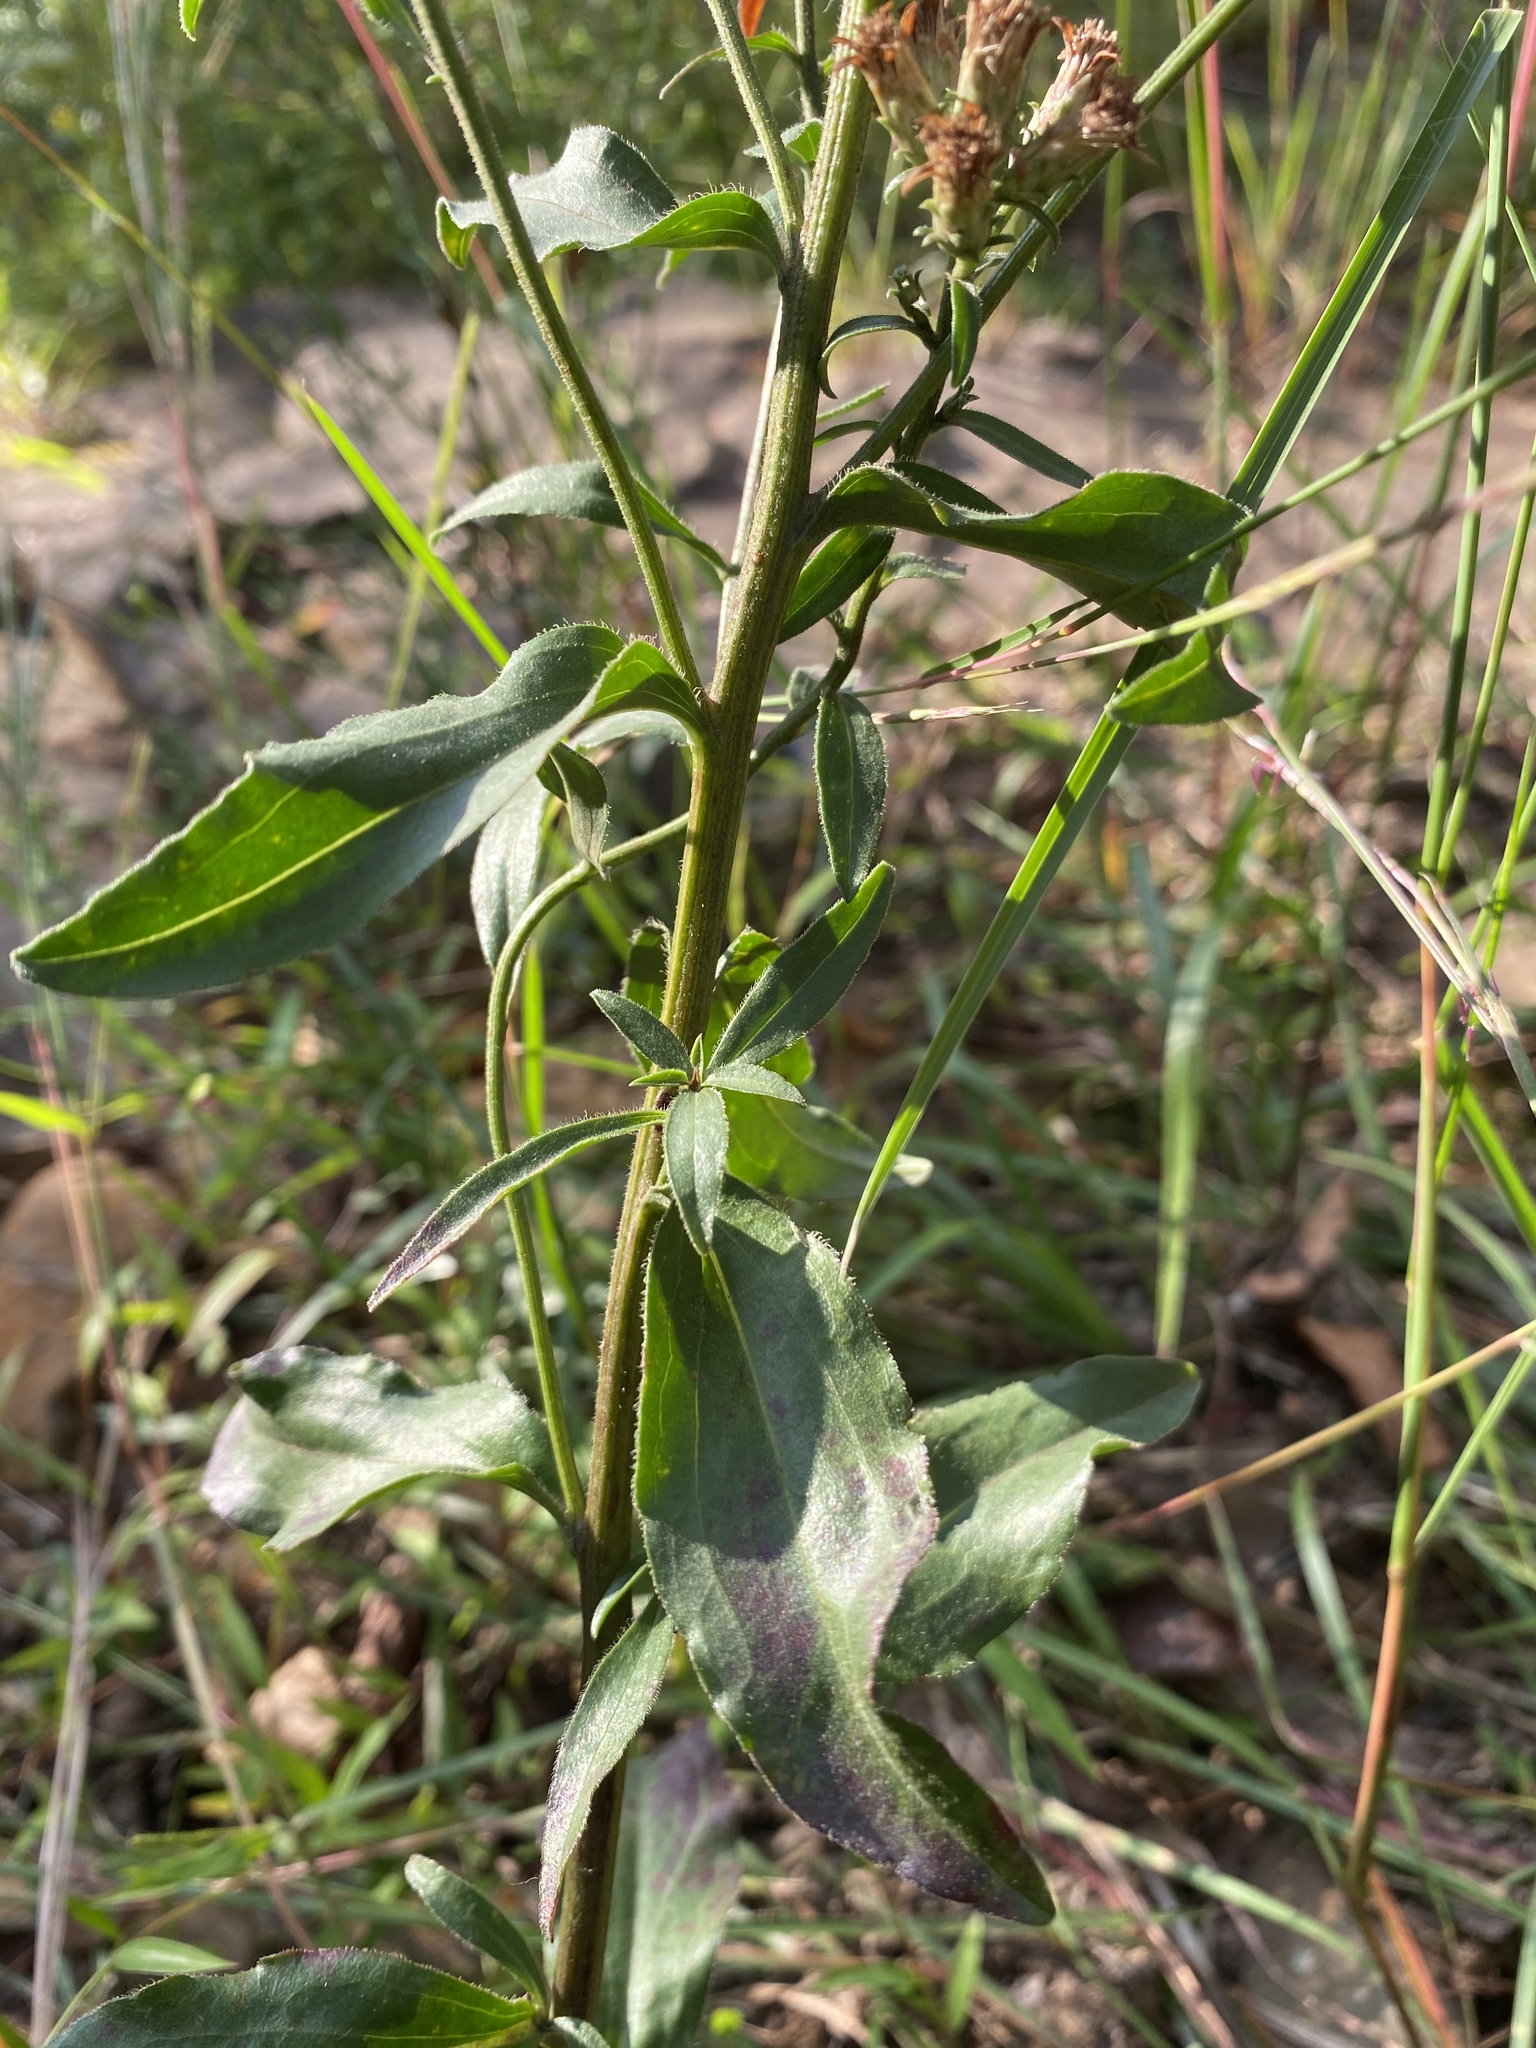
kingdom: Plantae
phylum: Tracheophyta
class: Magnoliopsida
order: Asterales
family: Asteraceae
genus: Sericocarpus
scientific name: Sericocarpus asteroides
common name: Toothed white-top aster
